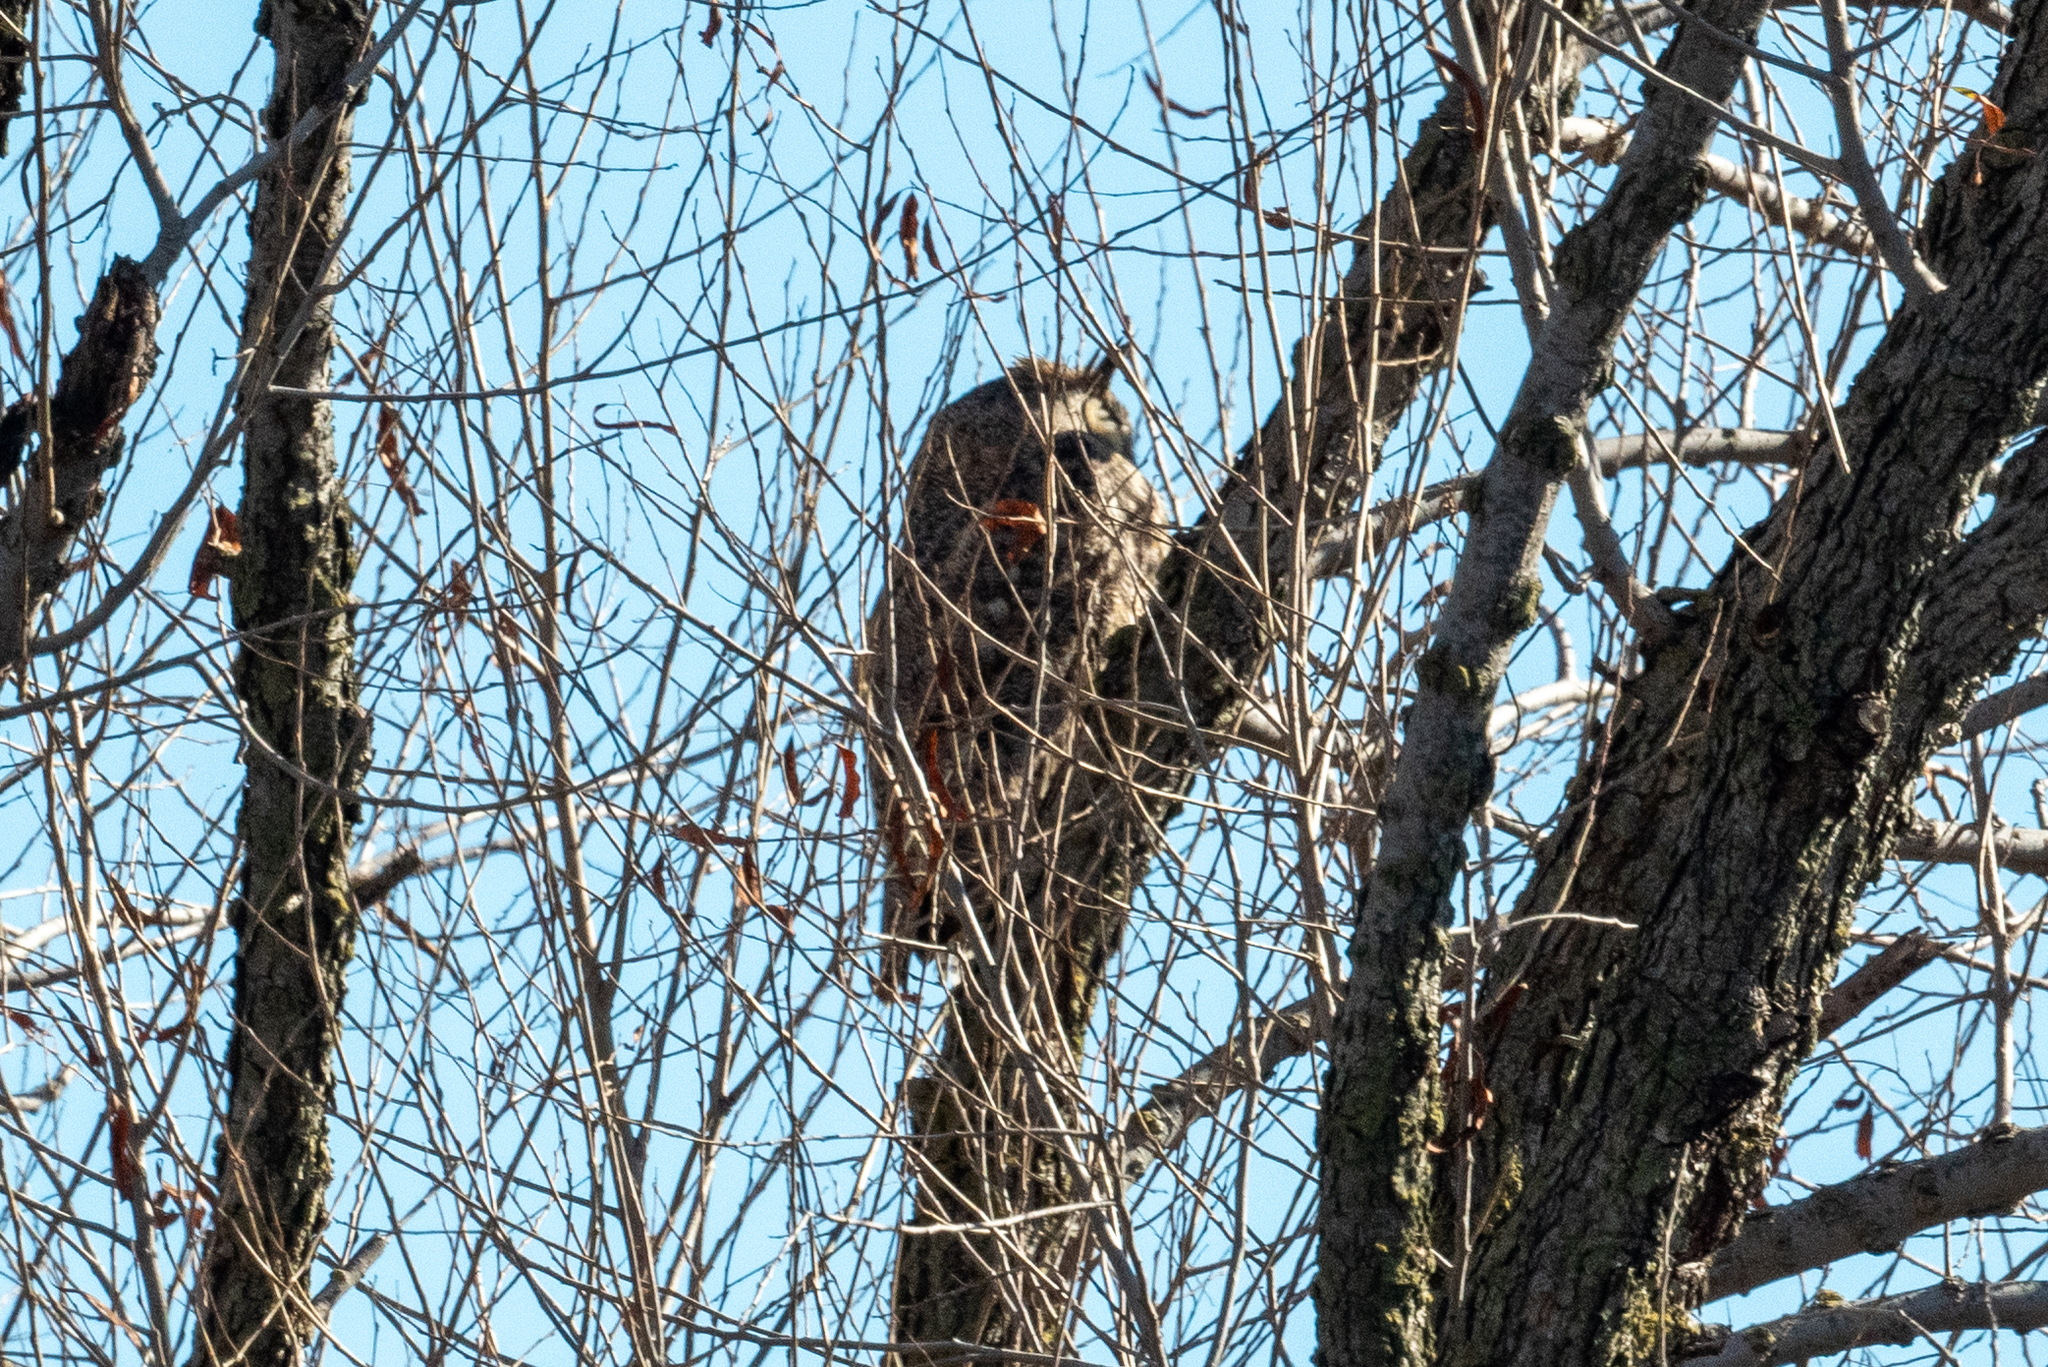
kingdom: Animalia
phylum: Chordata
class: Aves
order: Strigiformes
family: Strigidae
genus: Bubo
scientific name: Bubo virginianus
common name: Great horned owl
